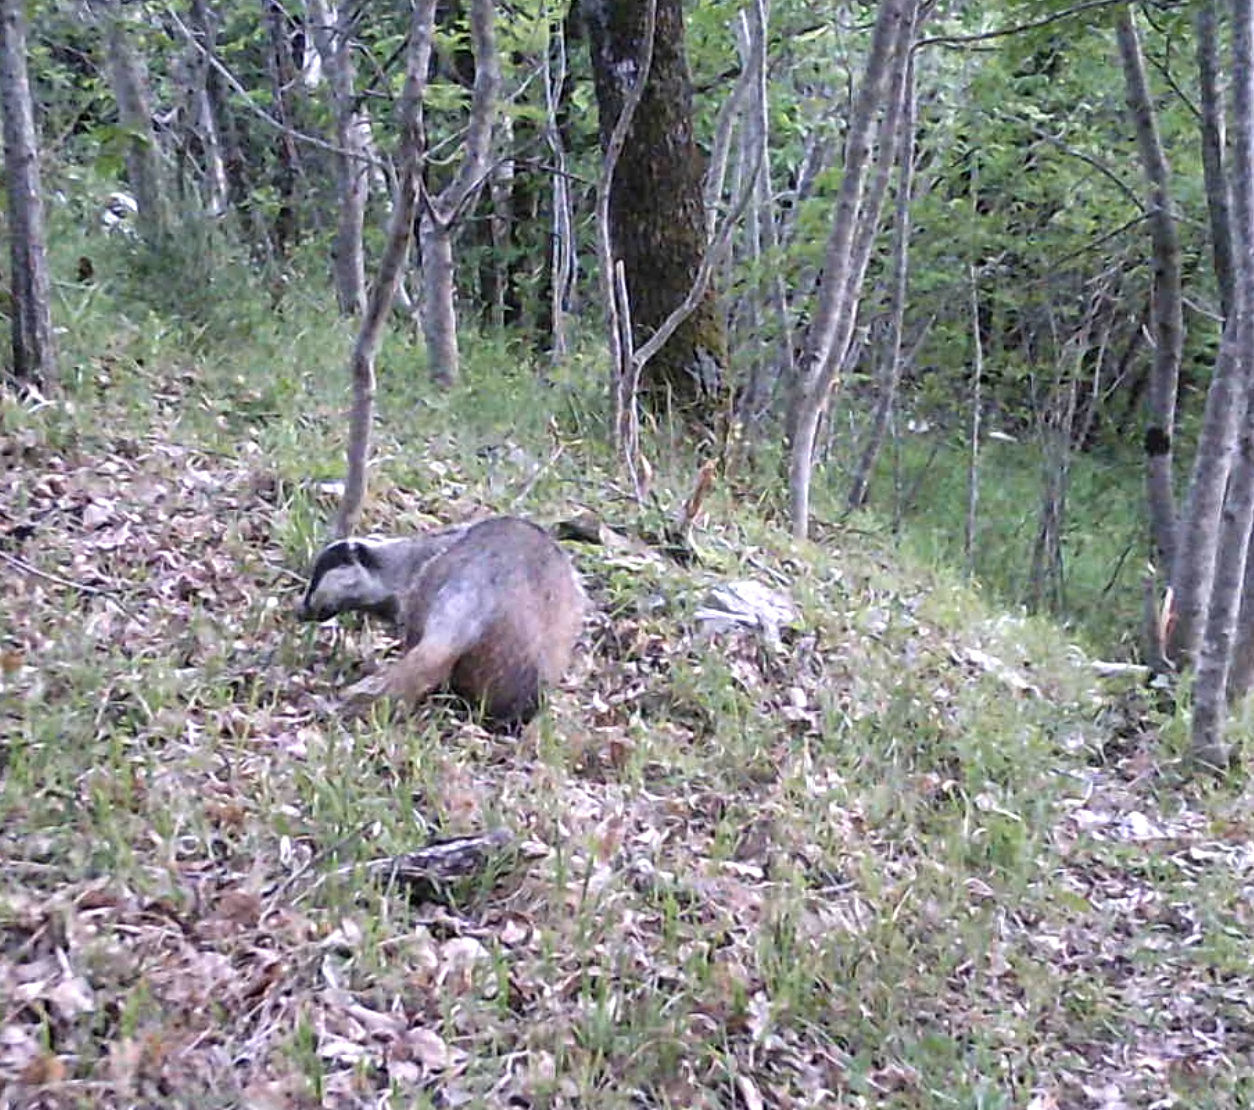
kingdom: Animalia
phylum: Chordata
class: Mammalia
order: Carnivora
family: Mustelidae
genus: Meles
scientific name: Meles meles
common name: Eurasian badger
